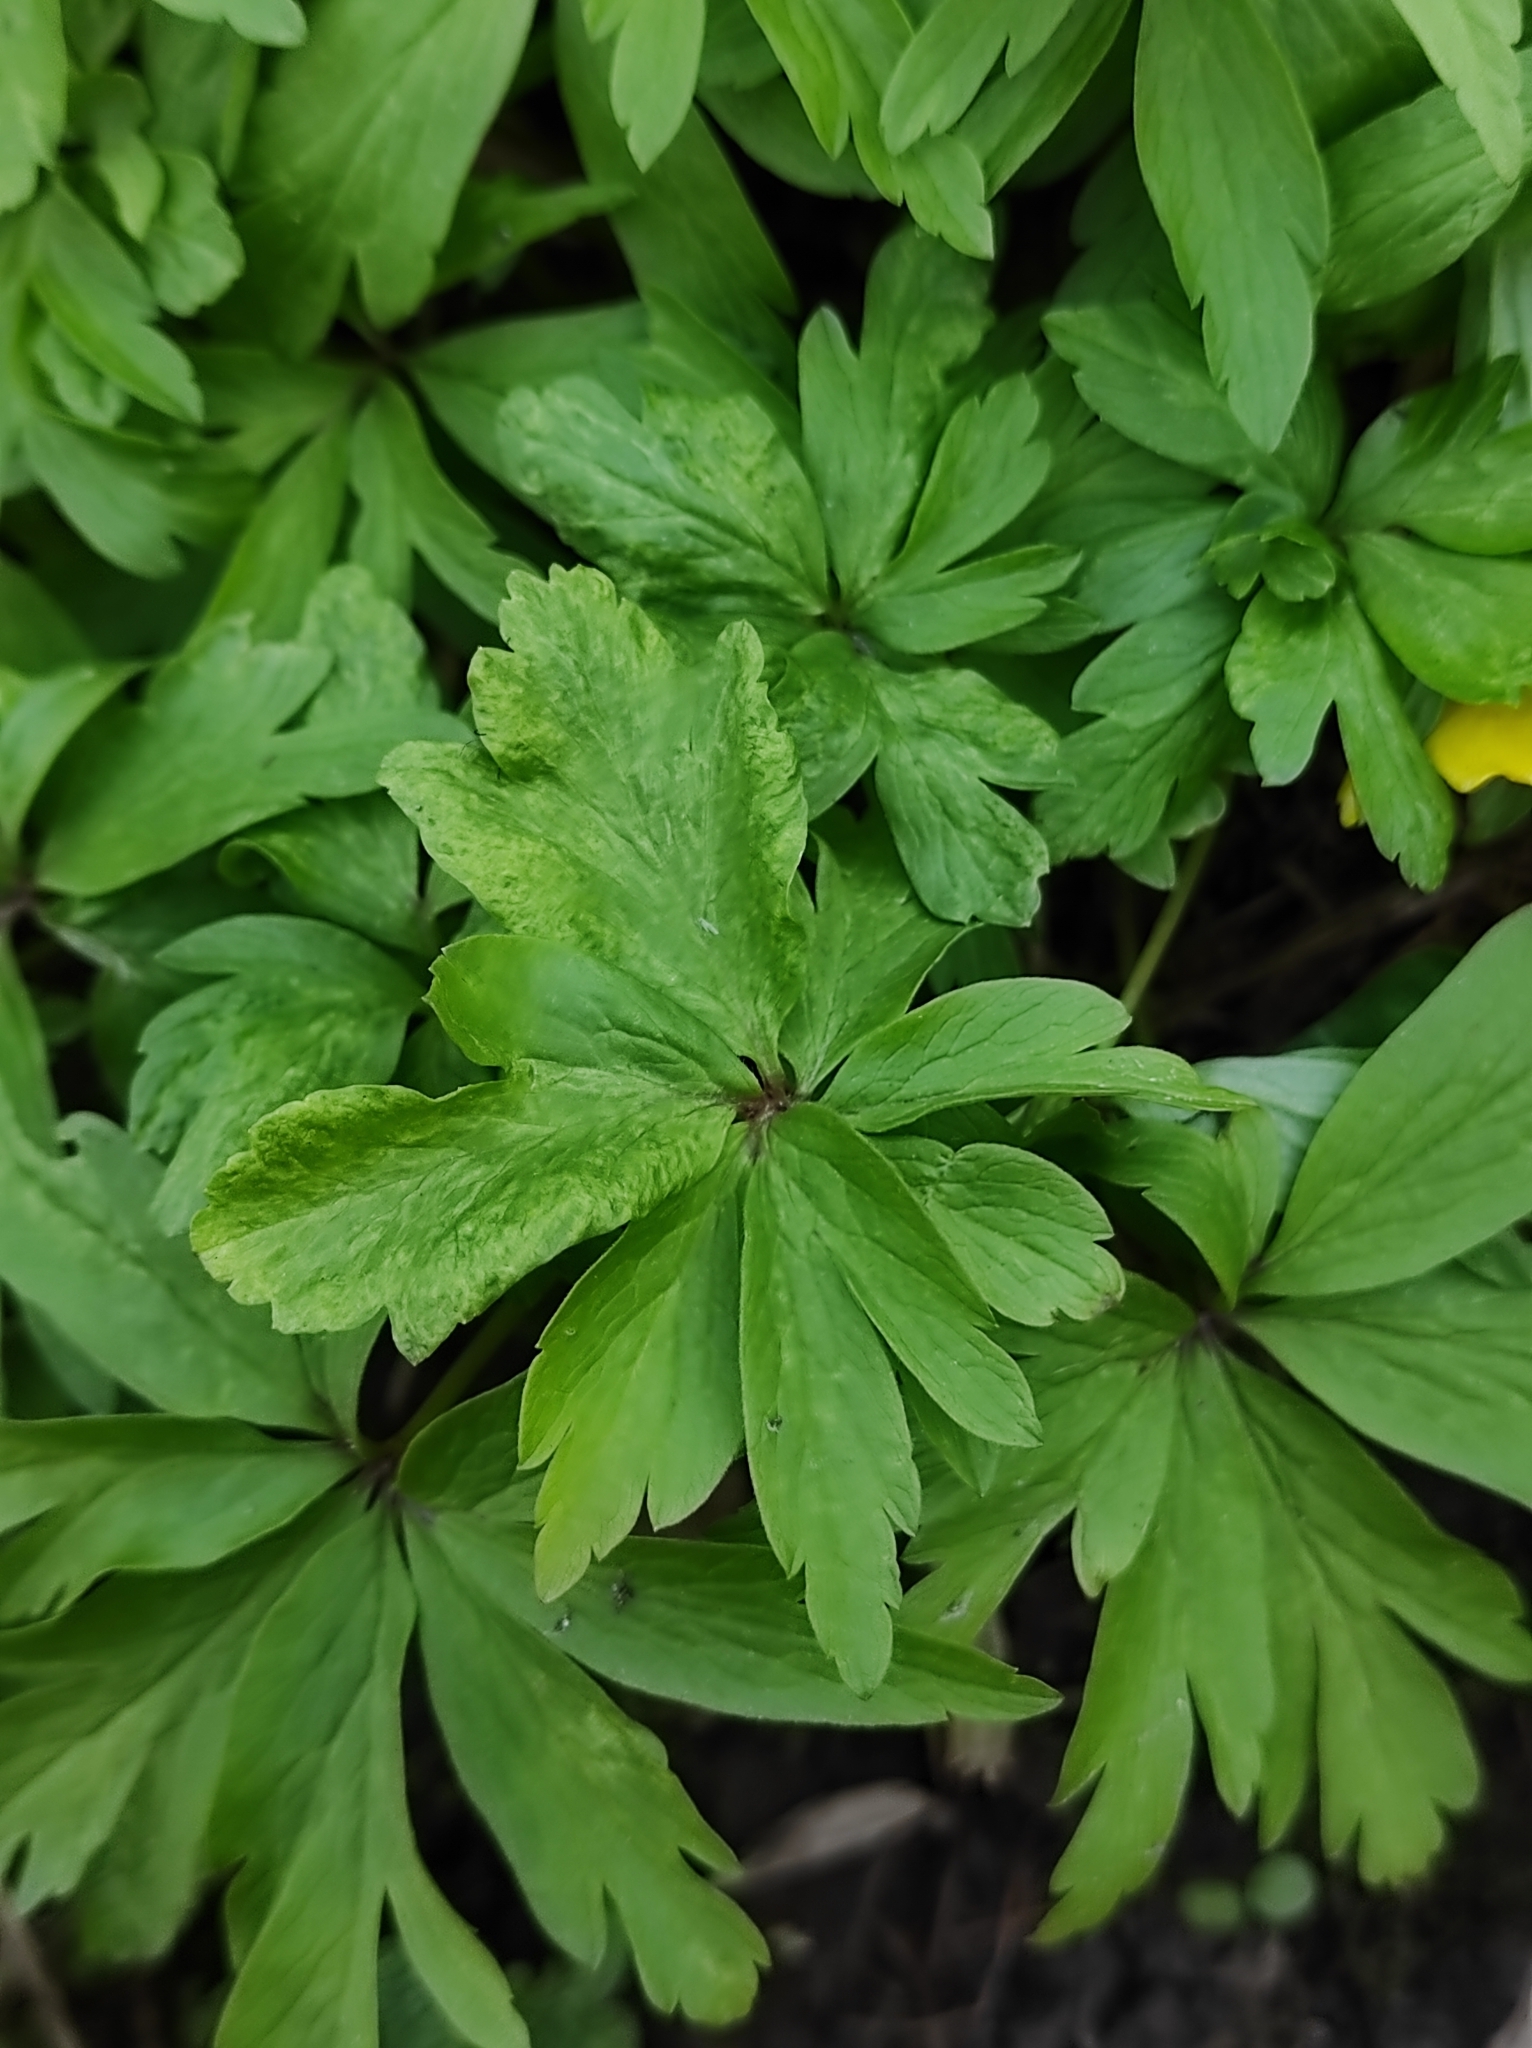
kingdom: Plantae
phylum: Tracheophyta
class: Magnoliopsida
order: Ranunculales
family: Ranunculaceae
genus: Anemone
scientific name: Anemone ranunculoides
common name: Yellow anemone
